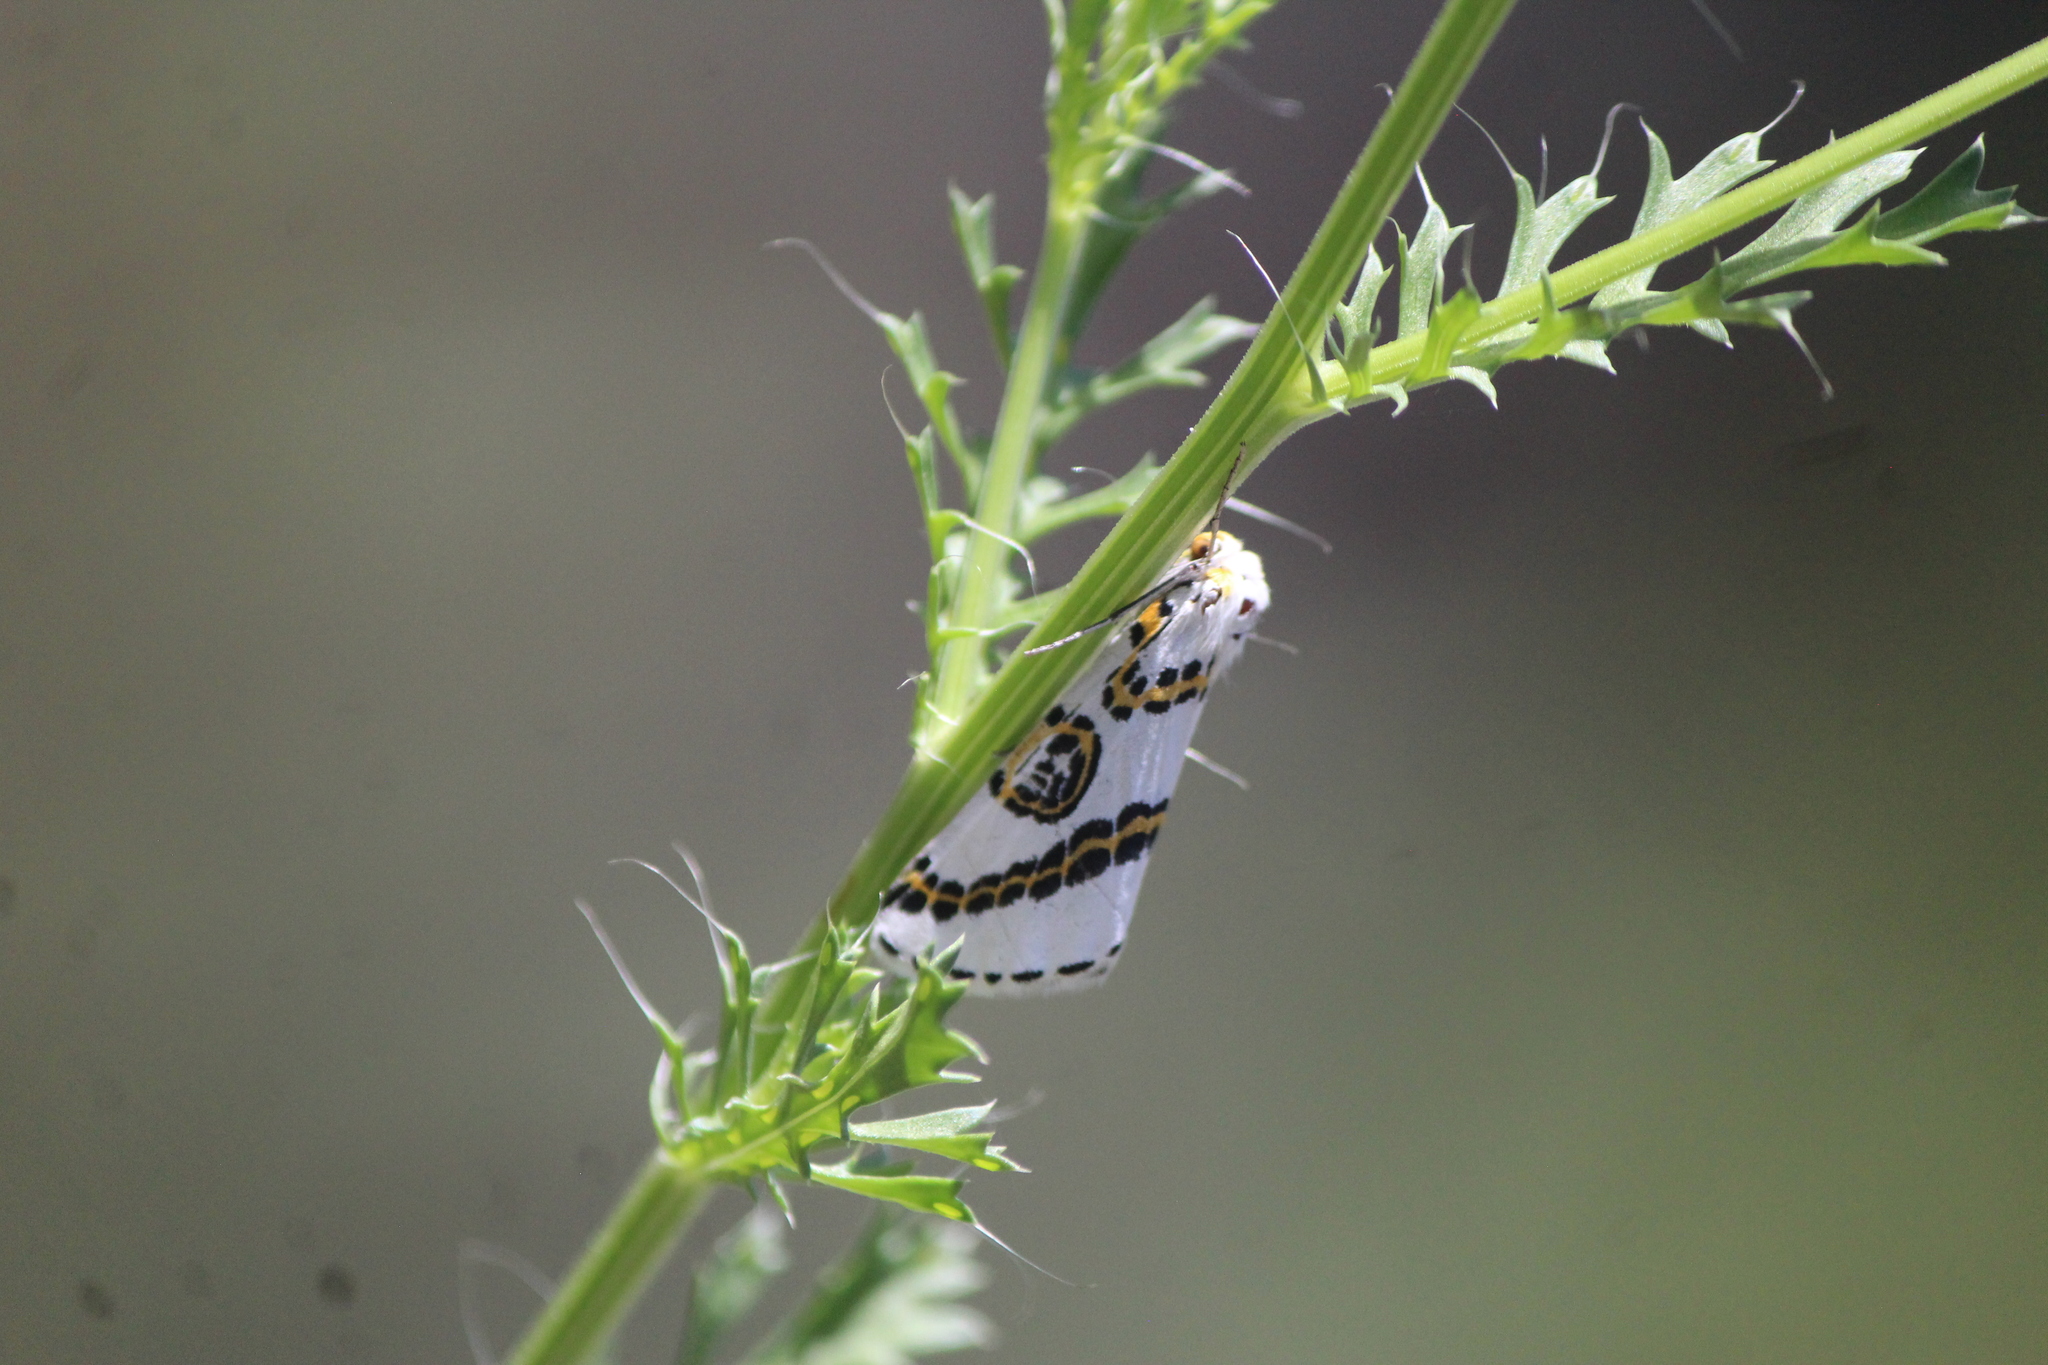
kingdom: Animalia
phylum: Arthropoda
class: Insecta
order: Lepidoptera
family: Geometridae
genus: Philtraea
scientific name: Philtraea mexicana
